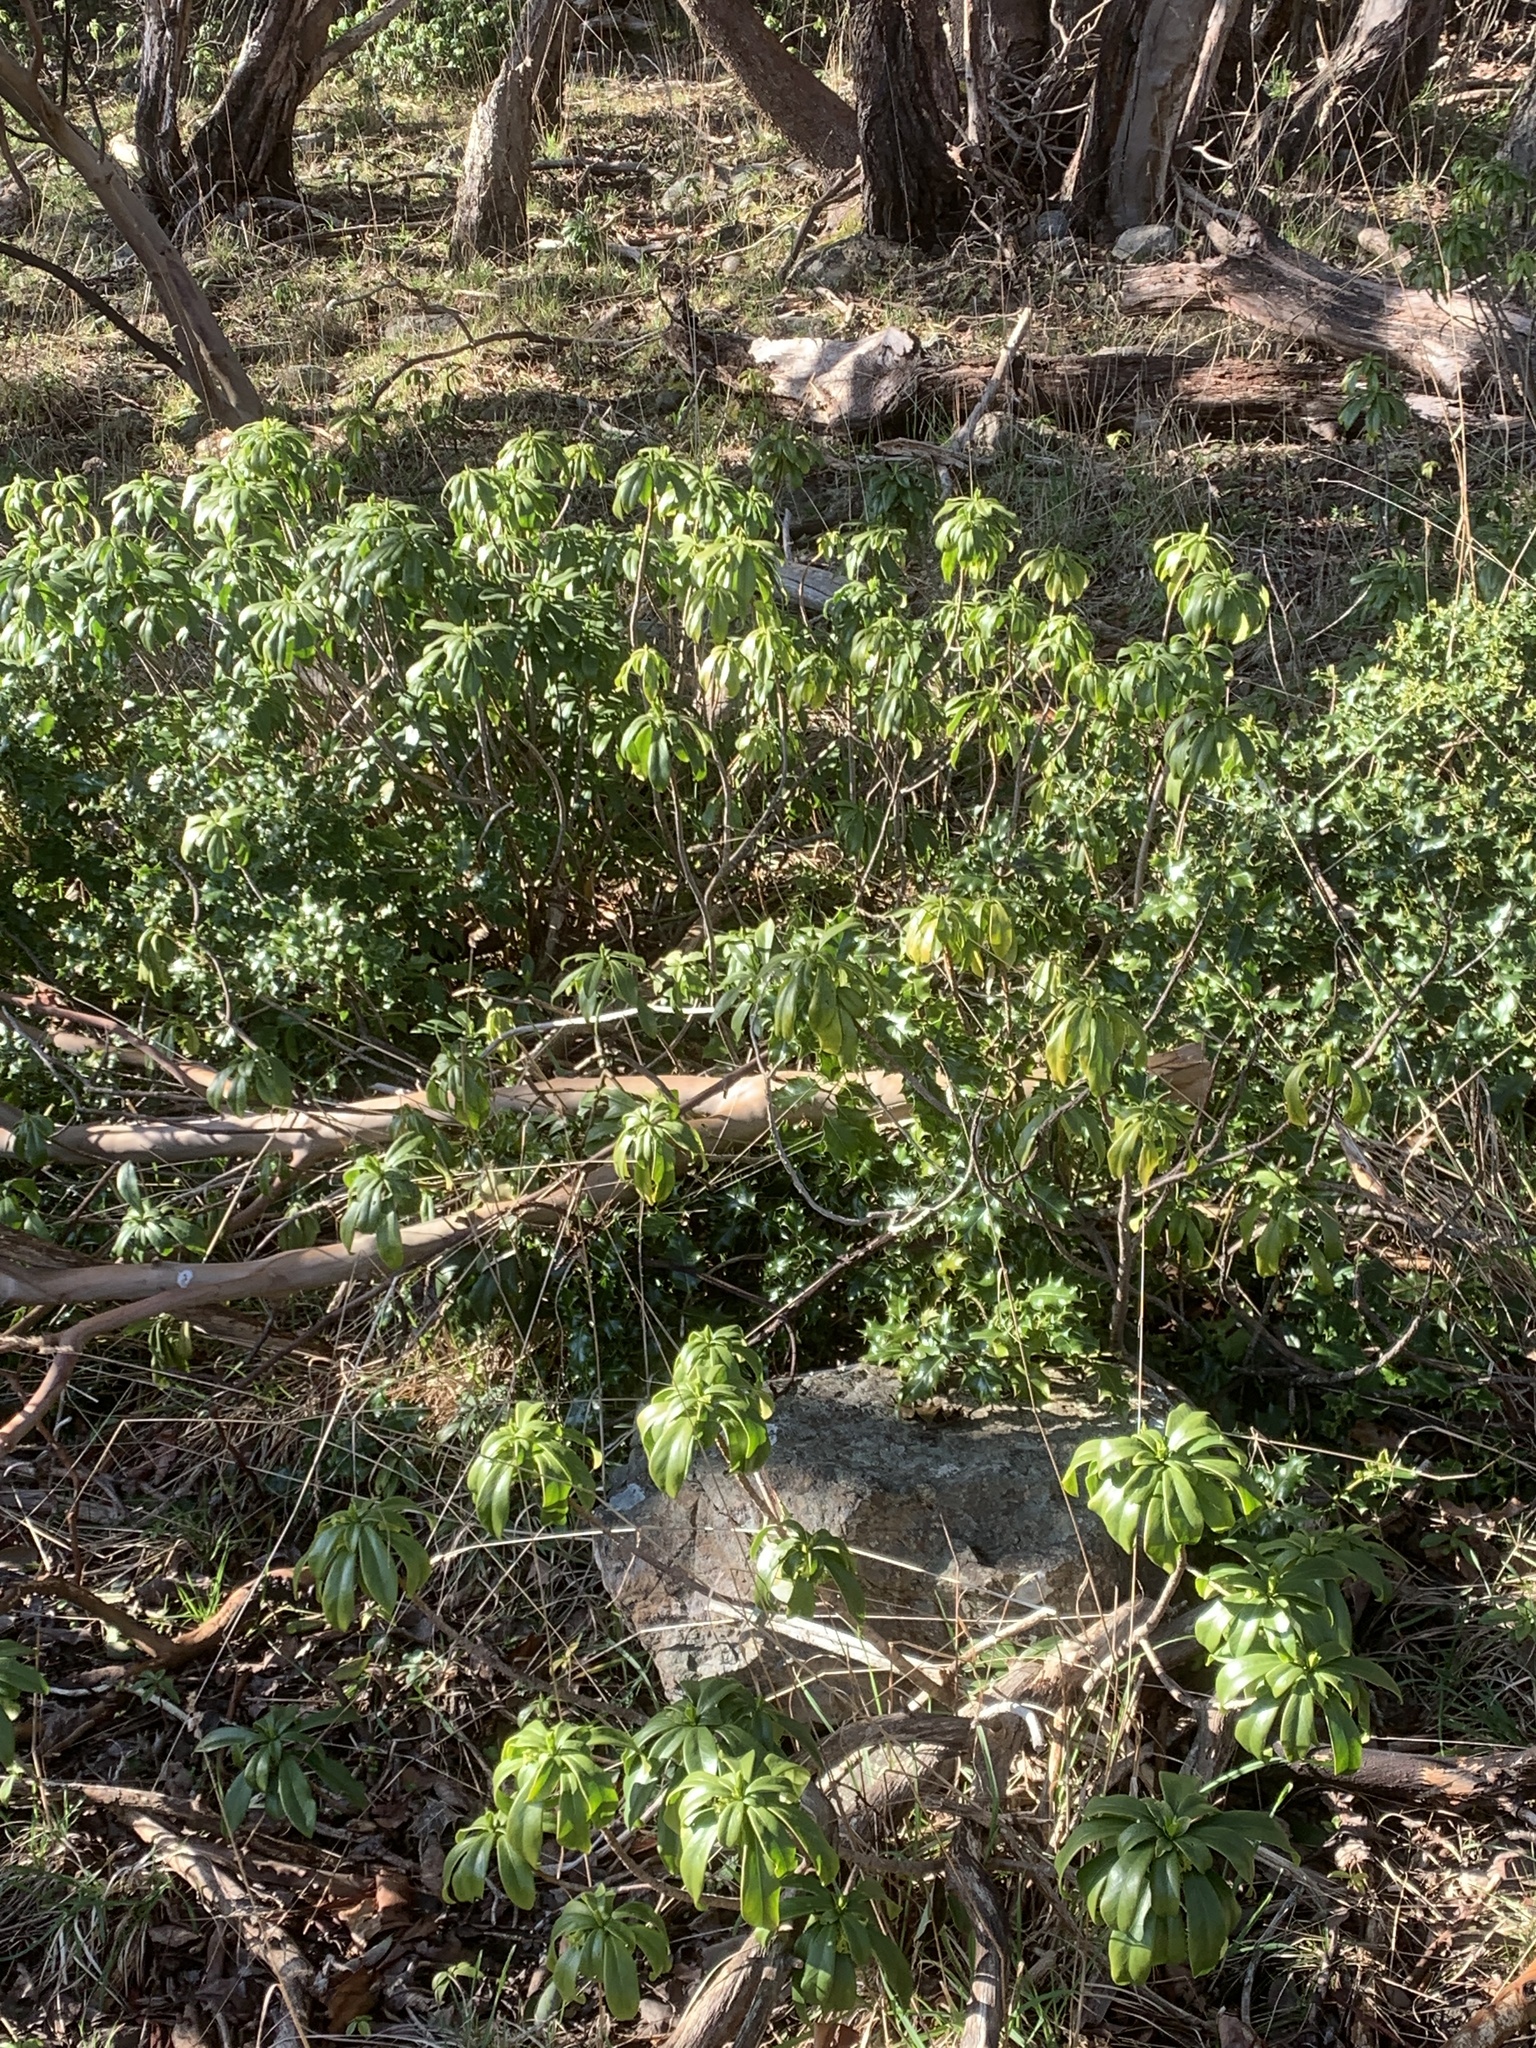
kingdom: Plantae
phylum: Tracheophyta
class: Magnoliopsida
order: Malvales
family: Thymelaeaceae
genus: Daphne
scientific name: Daphne laureola
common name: Spurge-laurel
